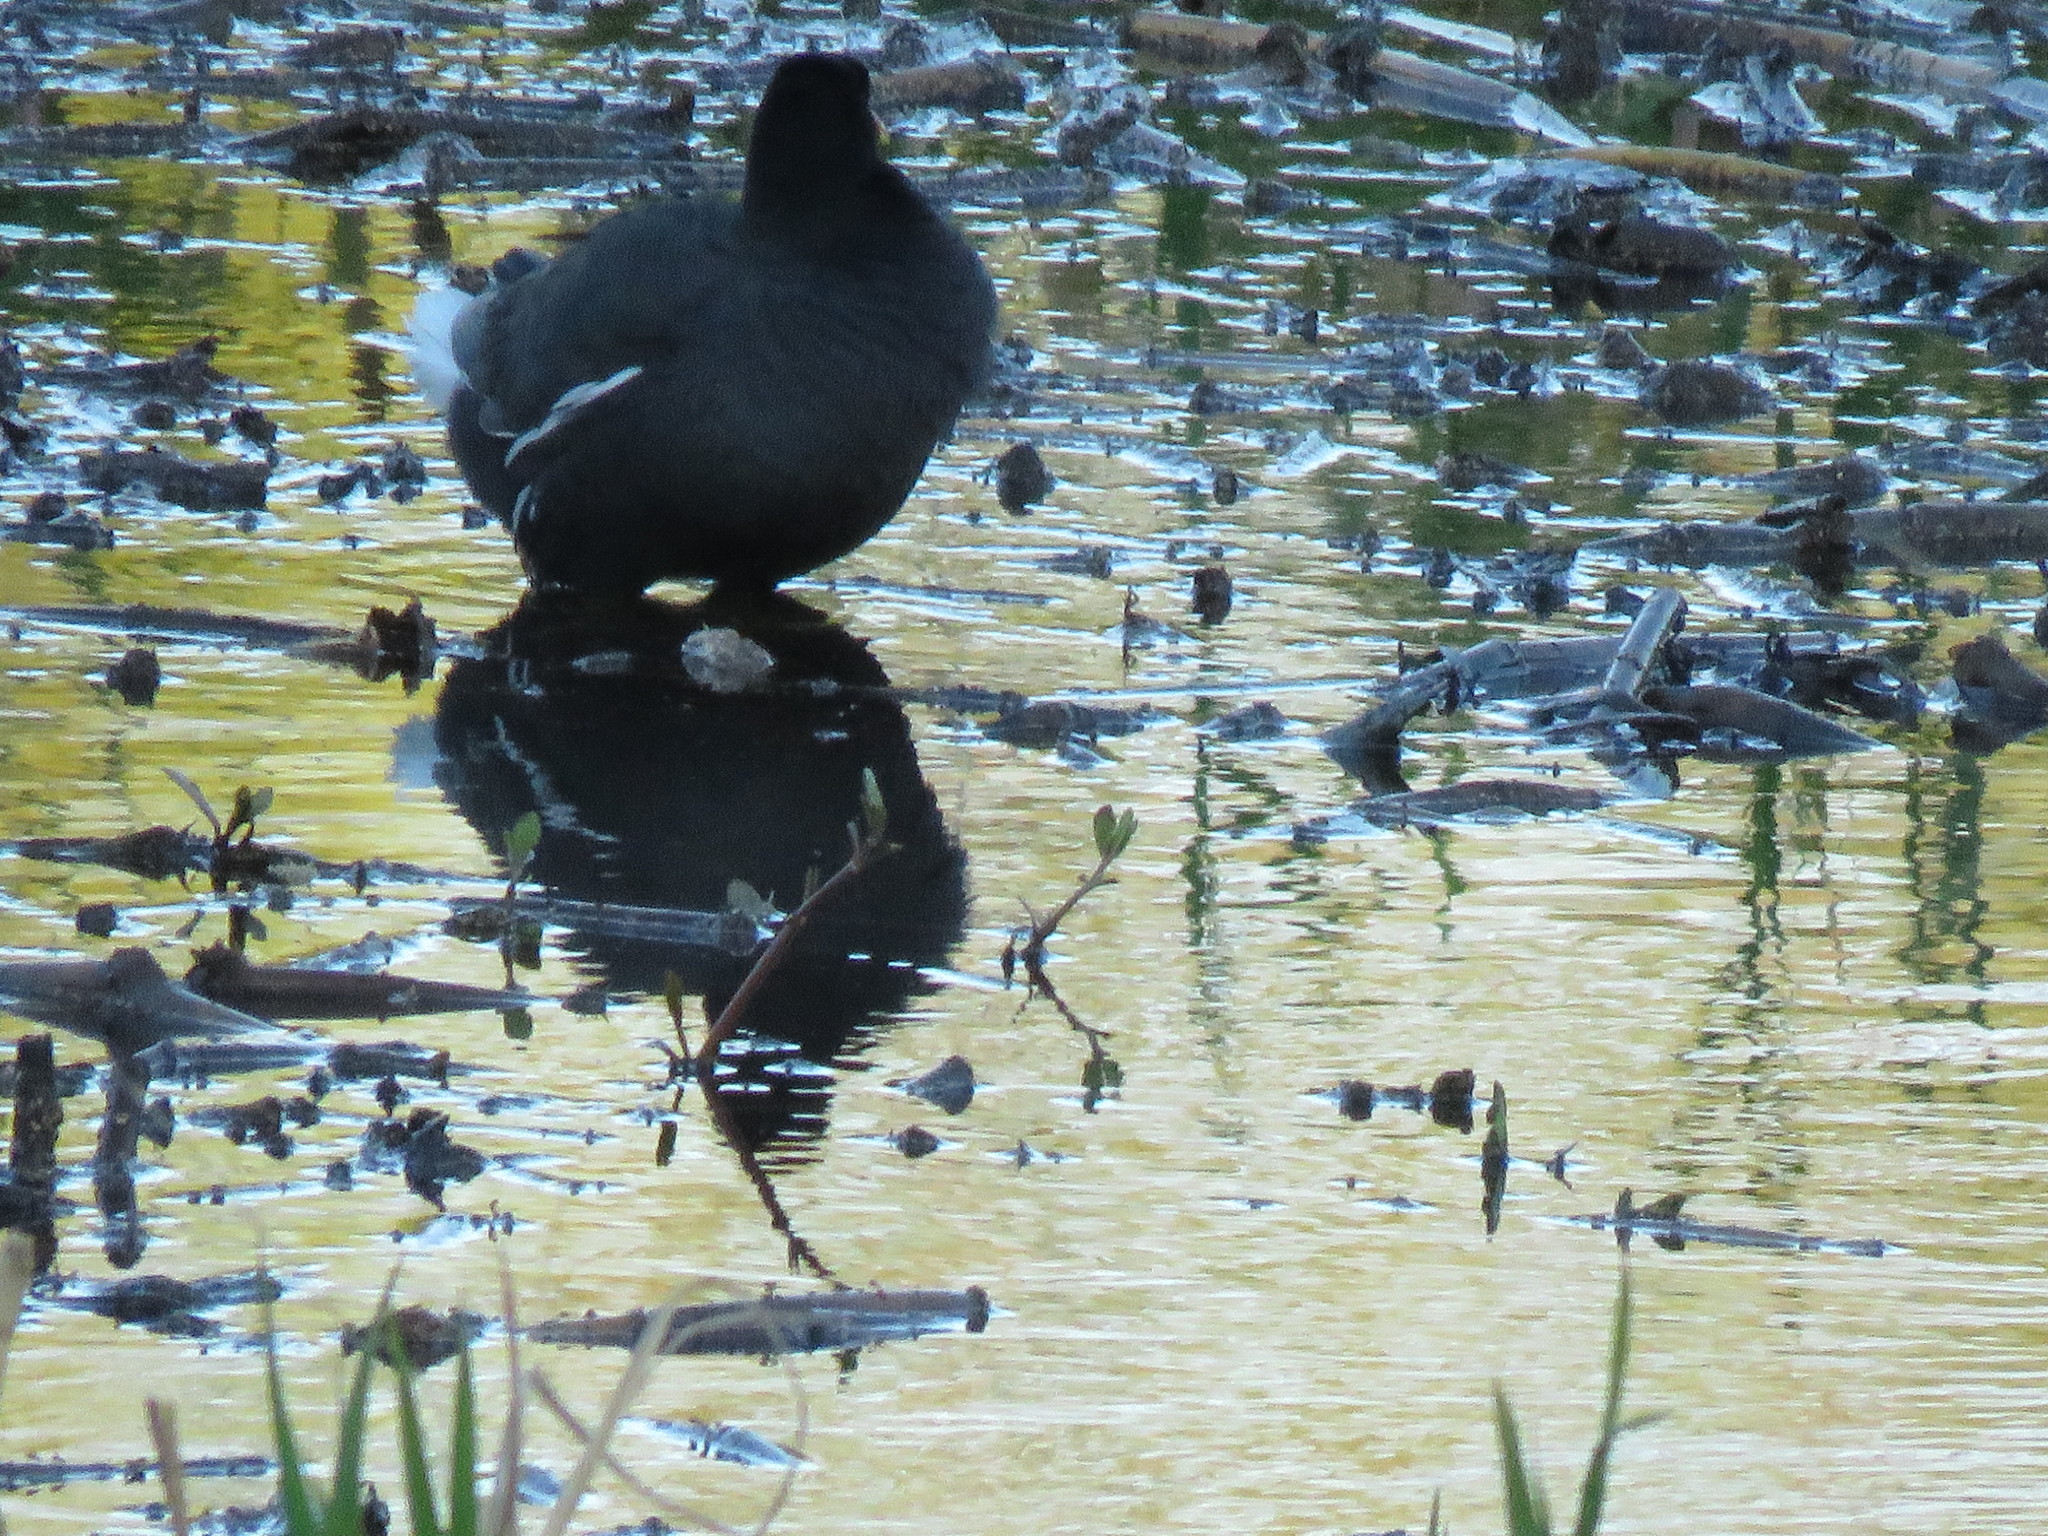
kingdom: Animalia
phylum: Chordata
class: Aves
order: Gruiformes
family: Rallidae
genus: Gallinula
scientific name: Gallinula chloropus
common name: Common moorhen
